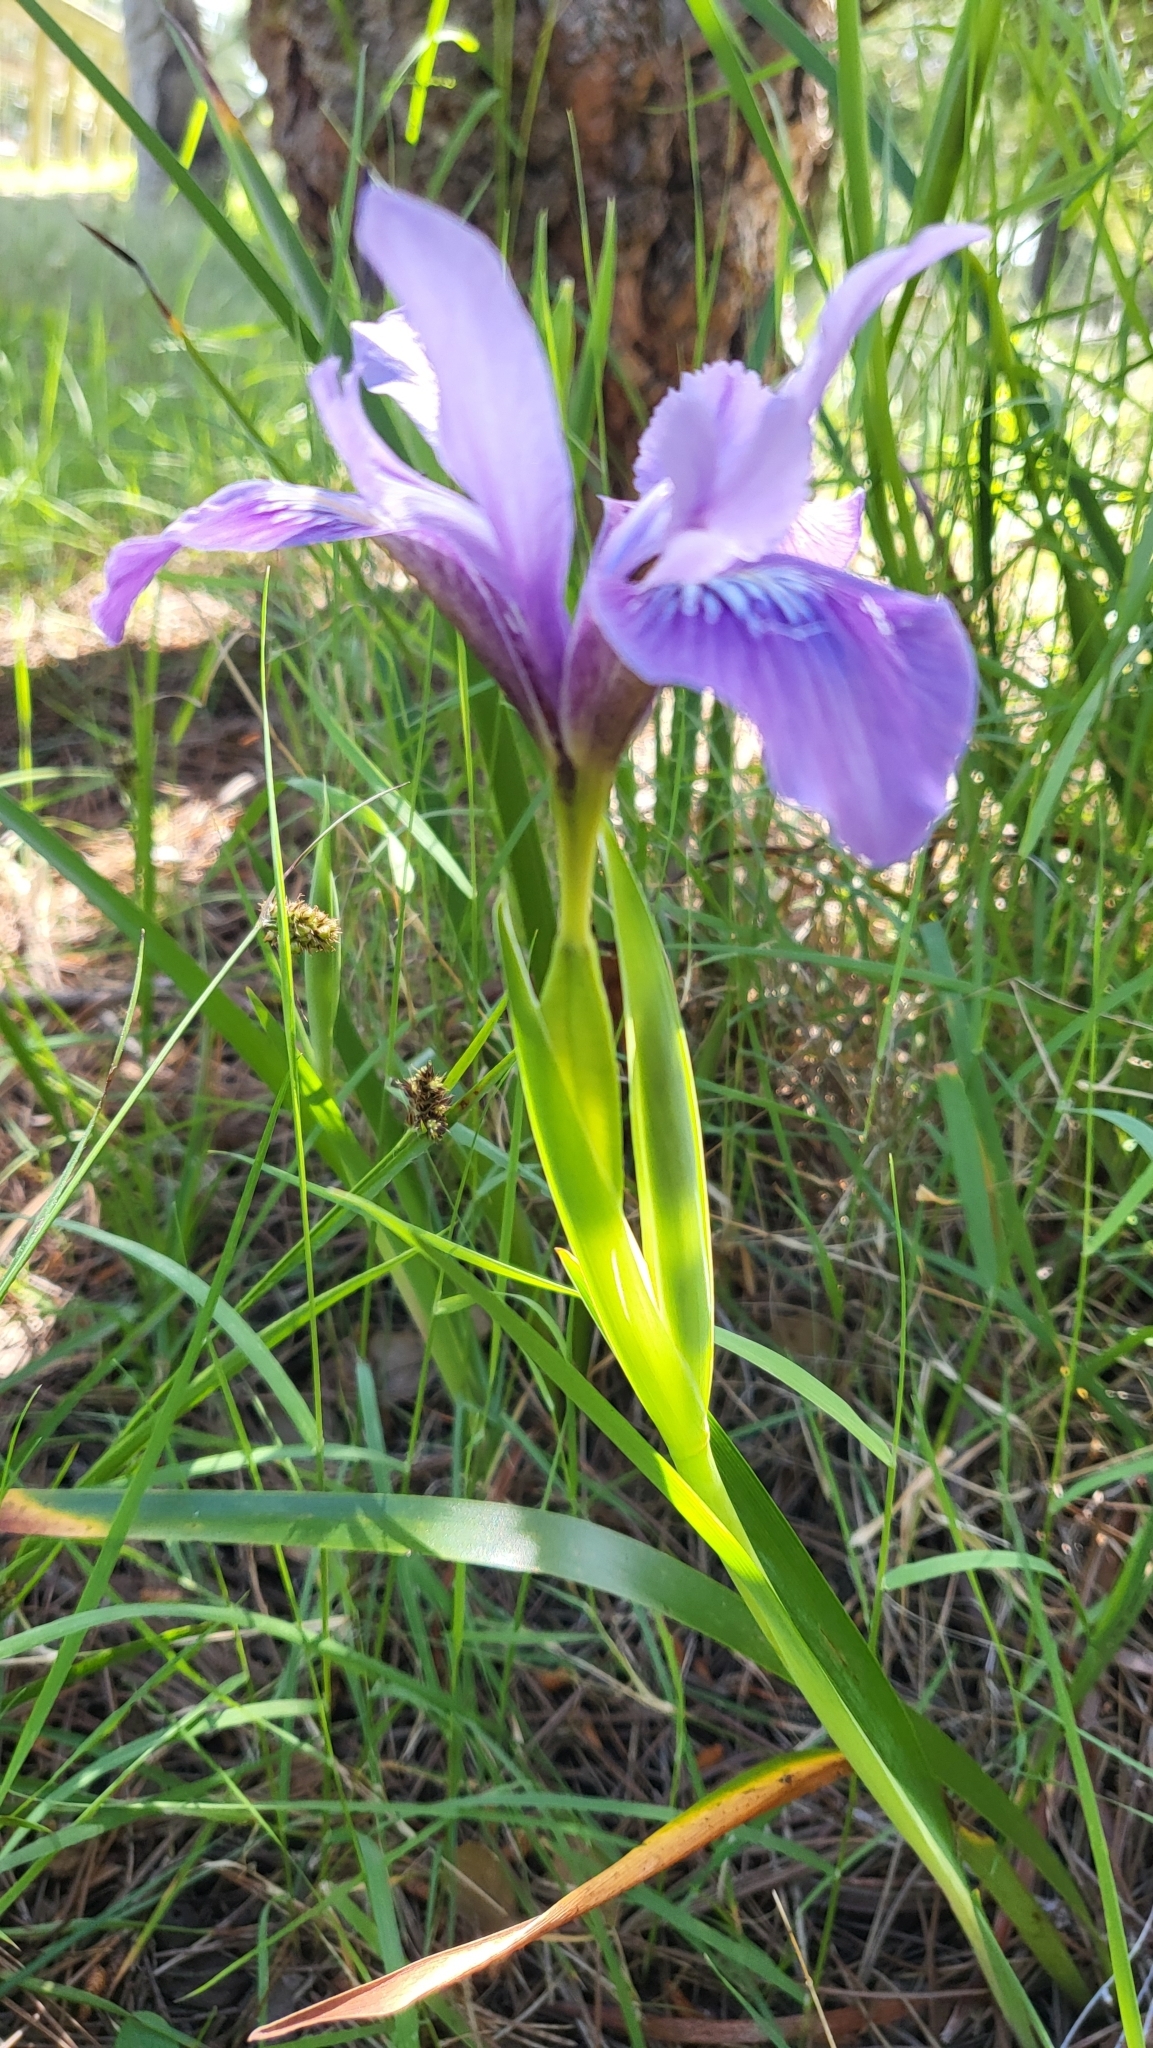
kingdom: Plantae
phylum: Tracheophyta
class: Liliopsida
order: Asparagales
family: Iridaceae
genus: Iris
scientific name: Iris douglasiana
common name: Marin iris
